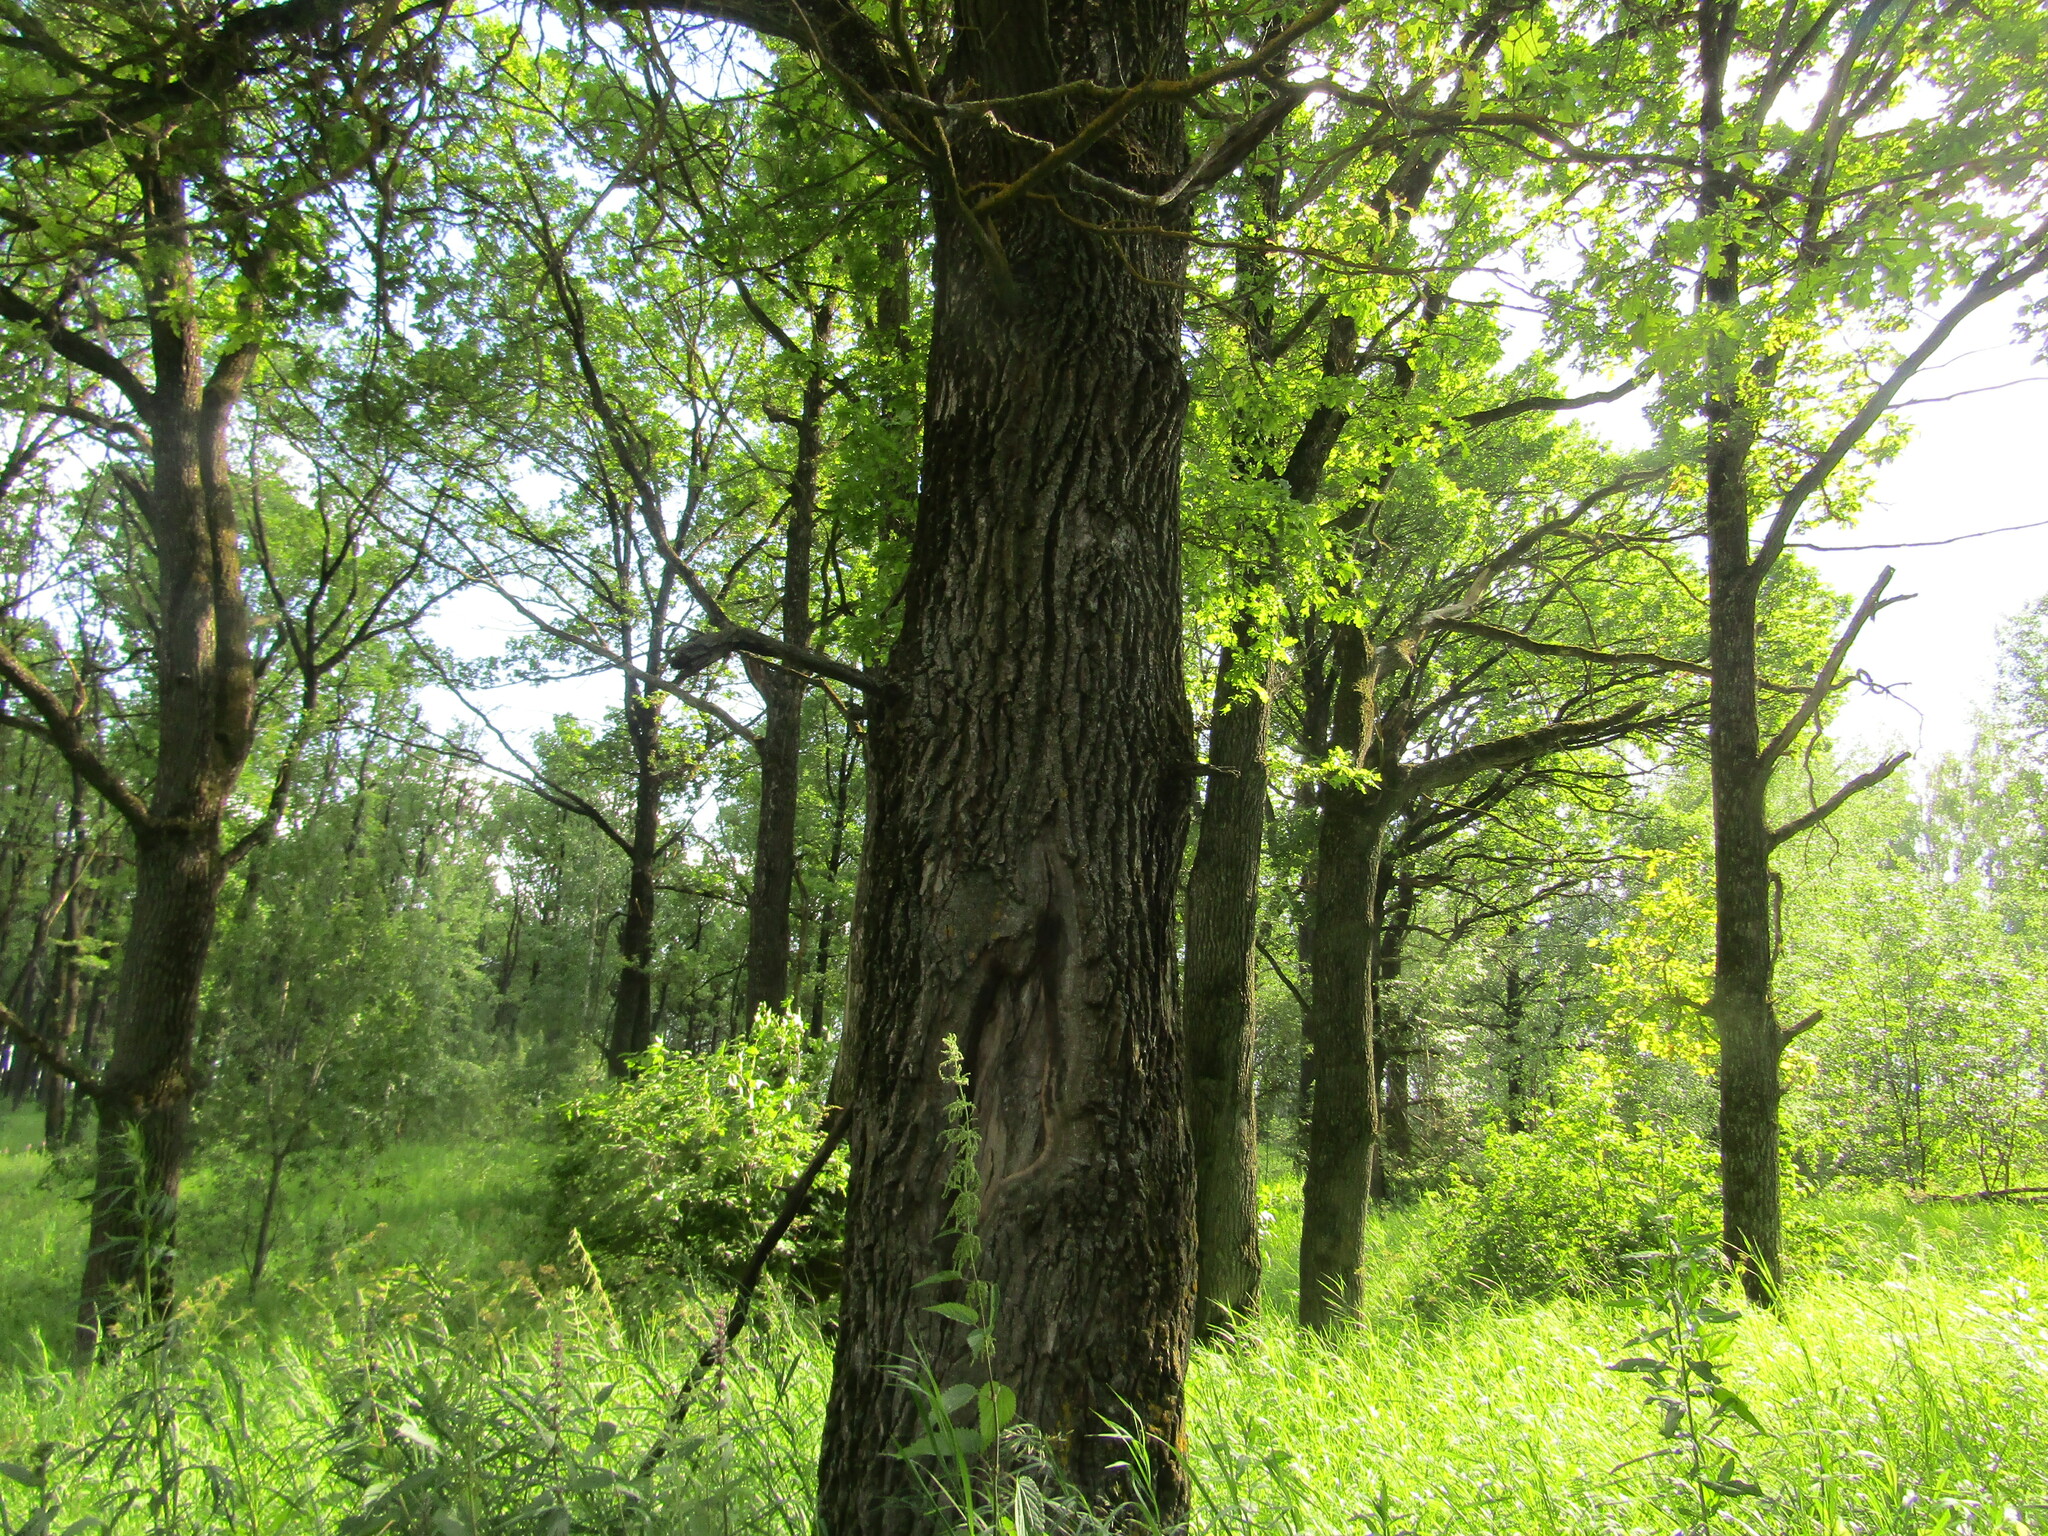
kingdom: Plantae
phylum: Tracheophyta
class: Magnoliopsida
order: Fagales
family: Fagaceae
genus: Quercus
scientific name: Quercus robur
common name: Pedunculate oak
